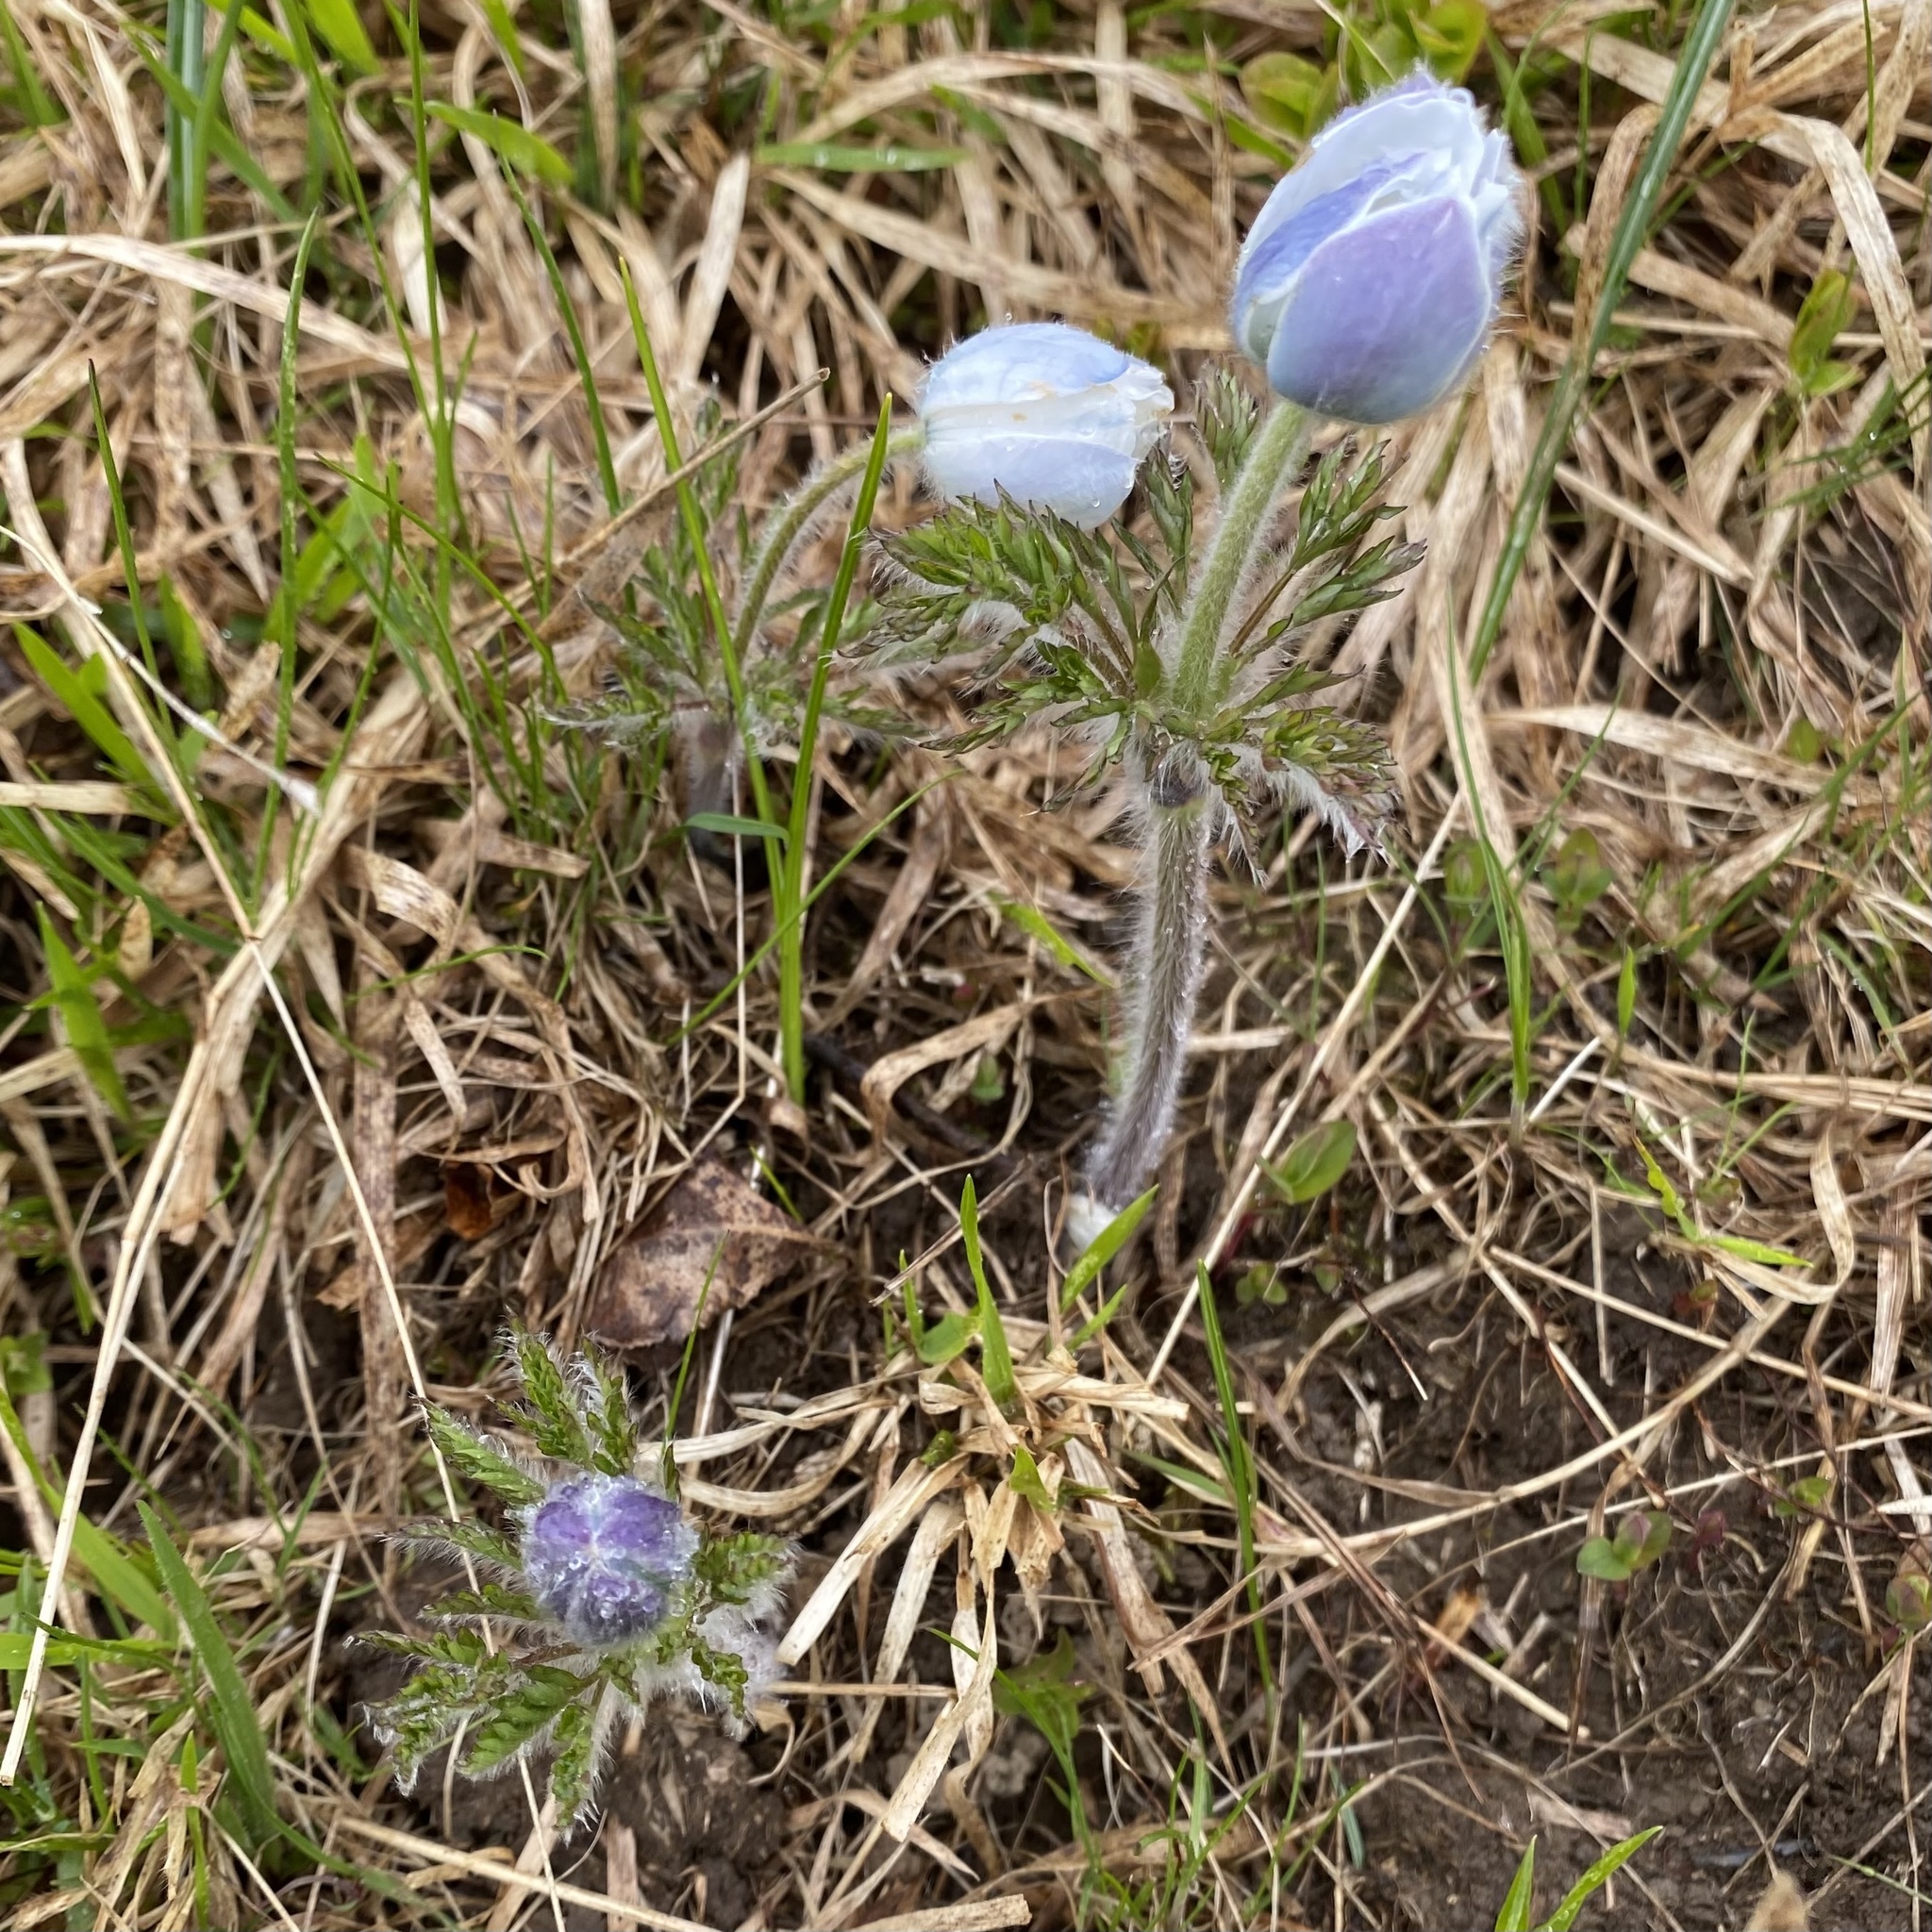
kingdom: Plantae
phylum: Tracheophyta
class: Magnoliopsida
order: Ranunculales
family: Ranunculaceae
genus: Pulsatilla
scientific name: Pulsatilla alpina
